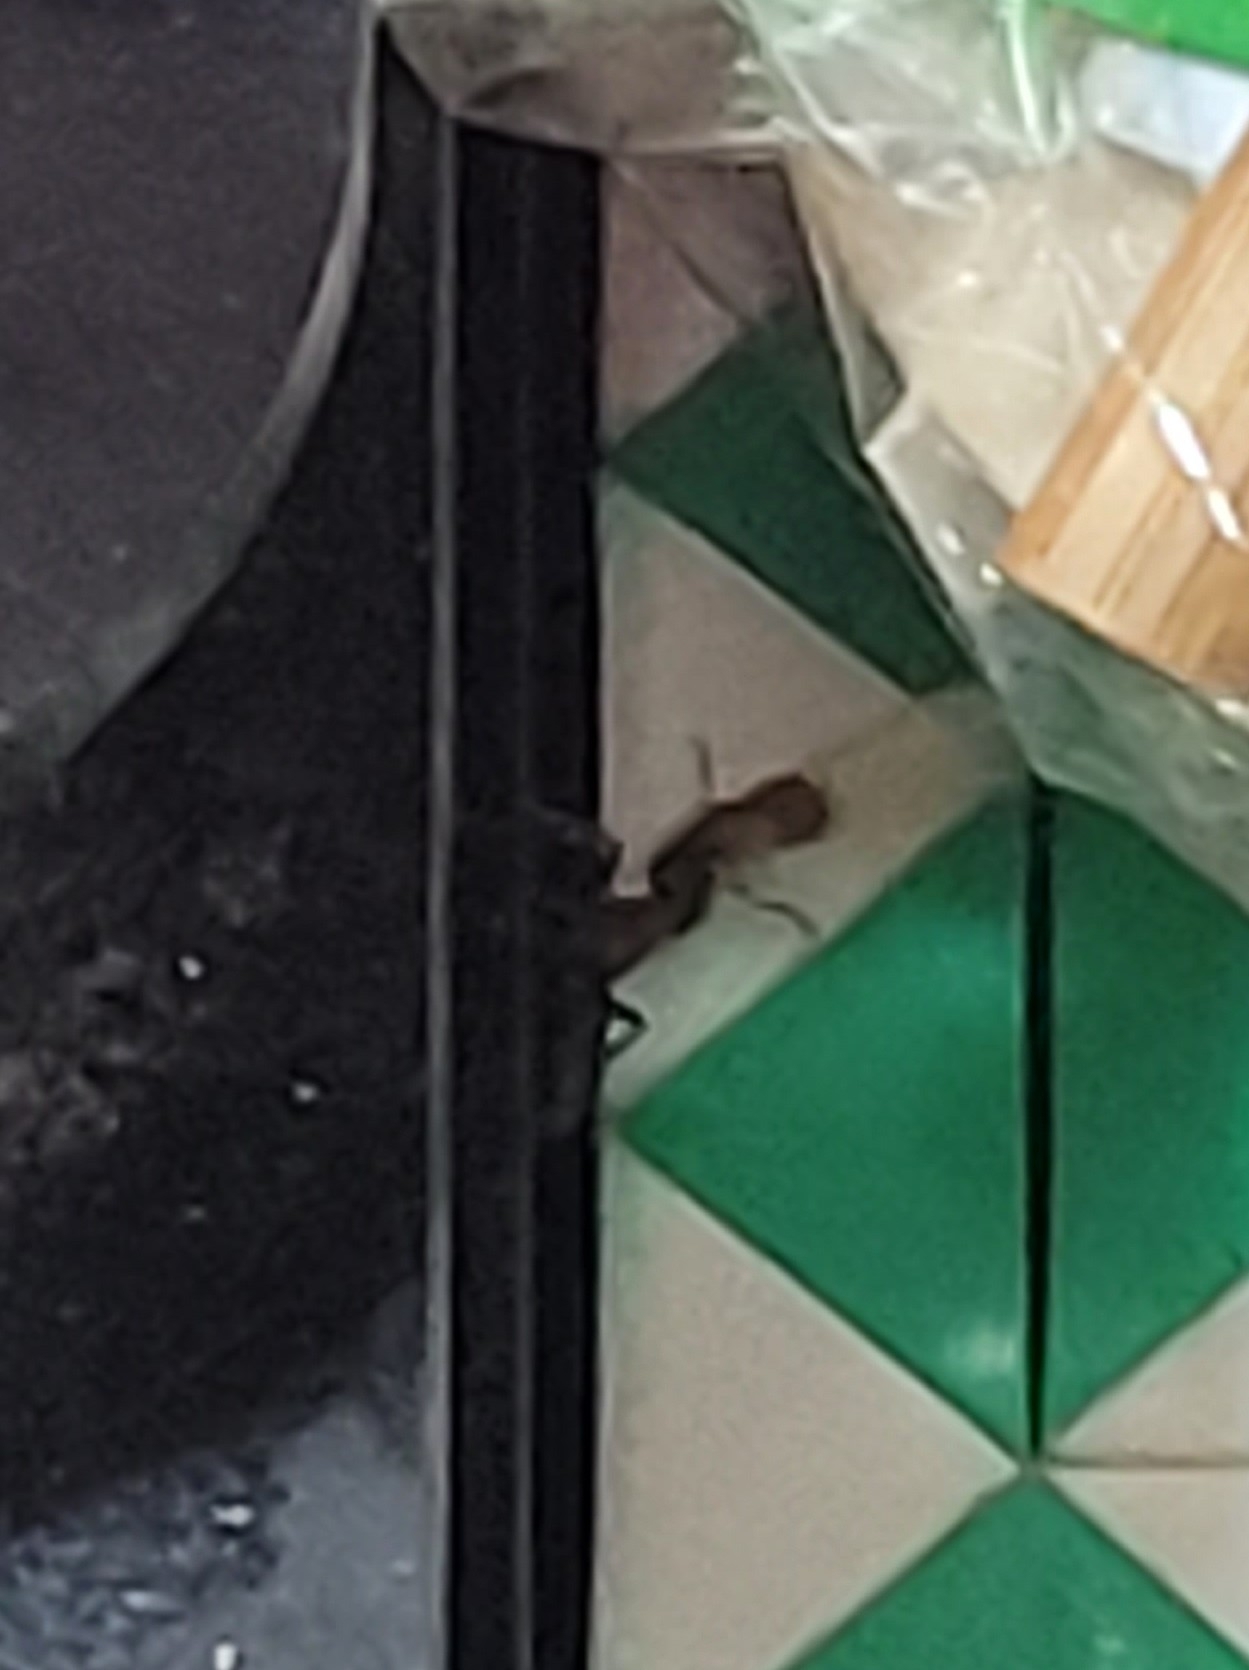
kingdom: Animalia
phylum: Arthropoda
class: Insecta
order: Hymenoptera
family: Formicidae
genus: Tetraponera
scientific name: Tetraponera rufonigra
